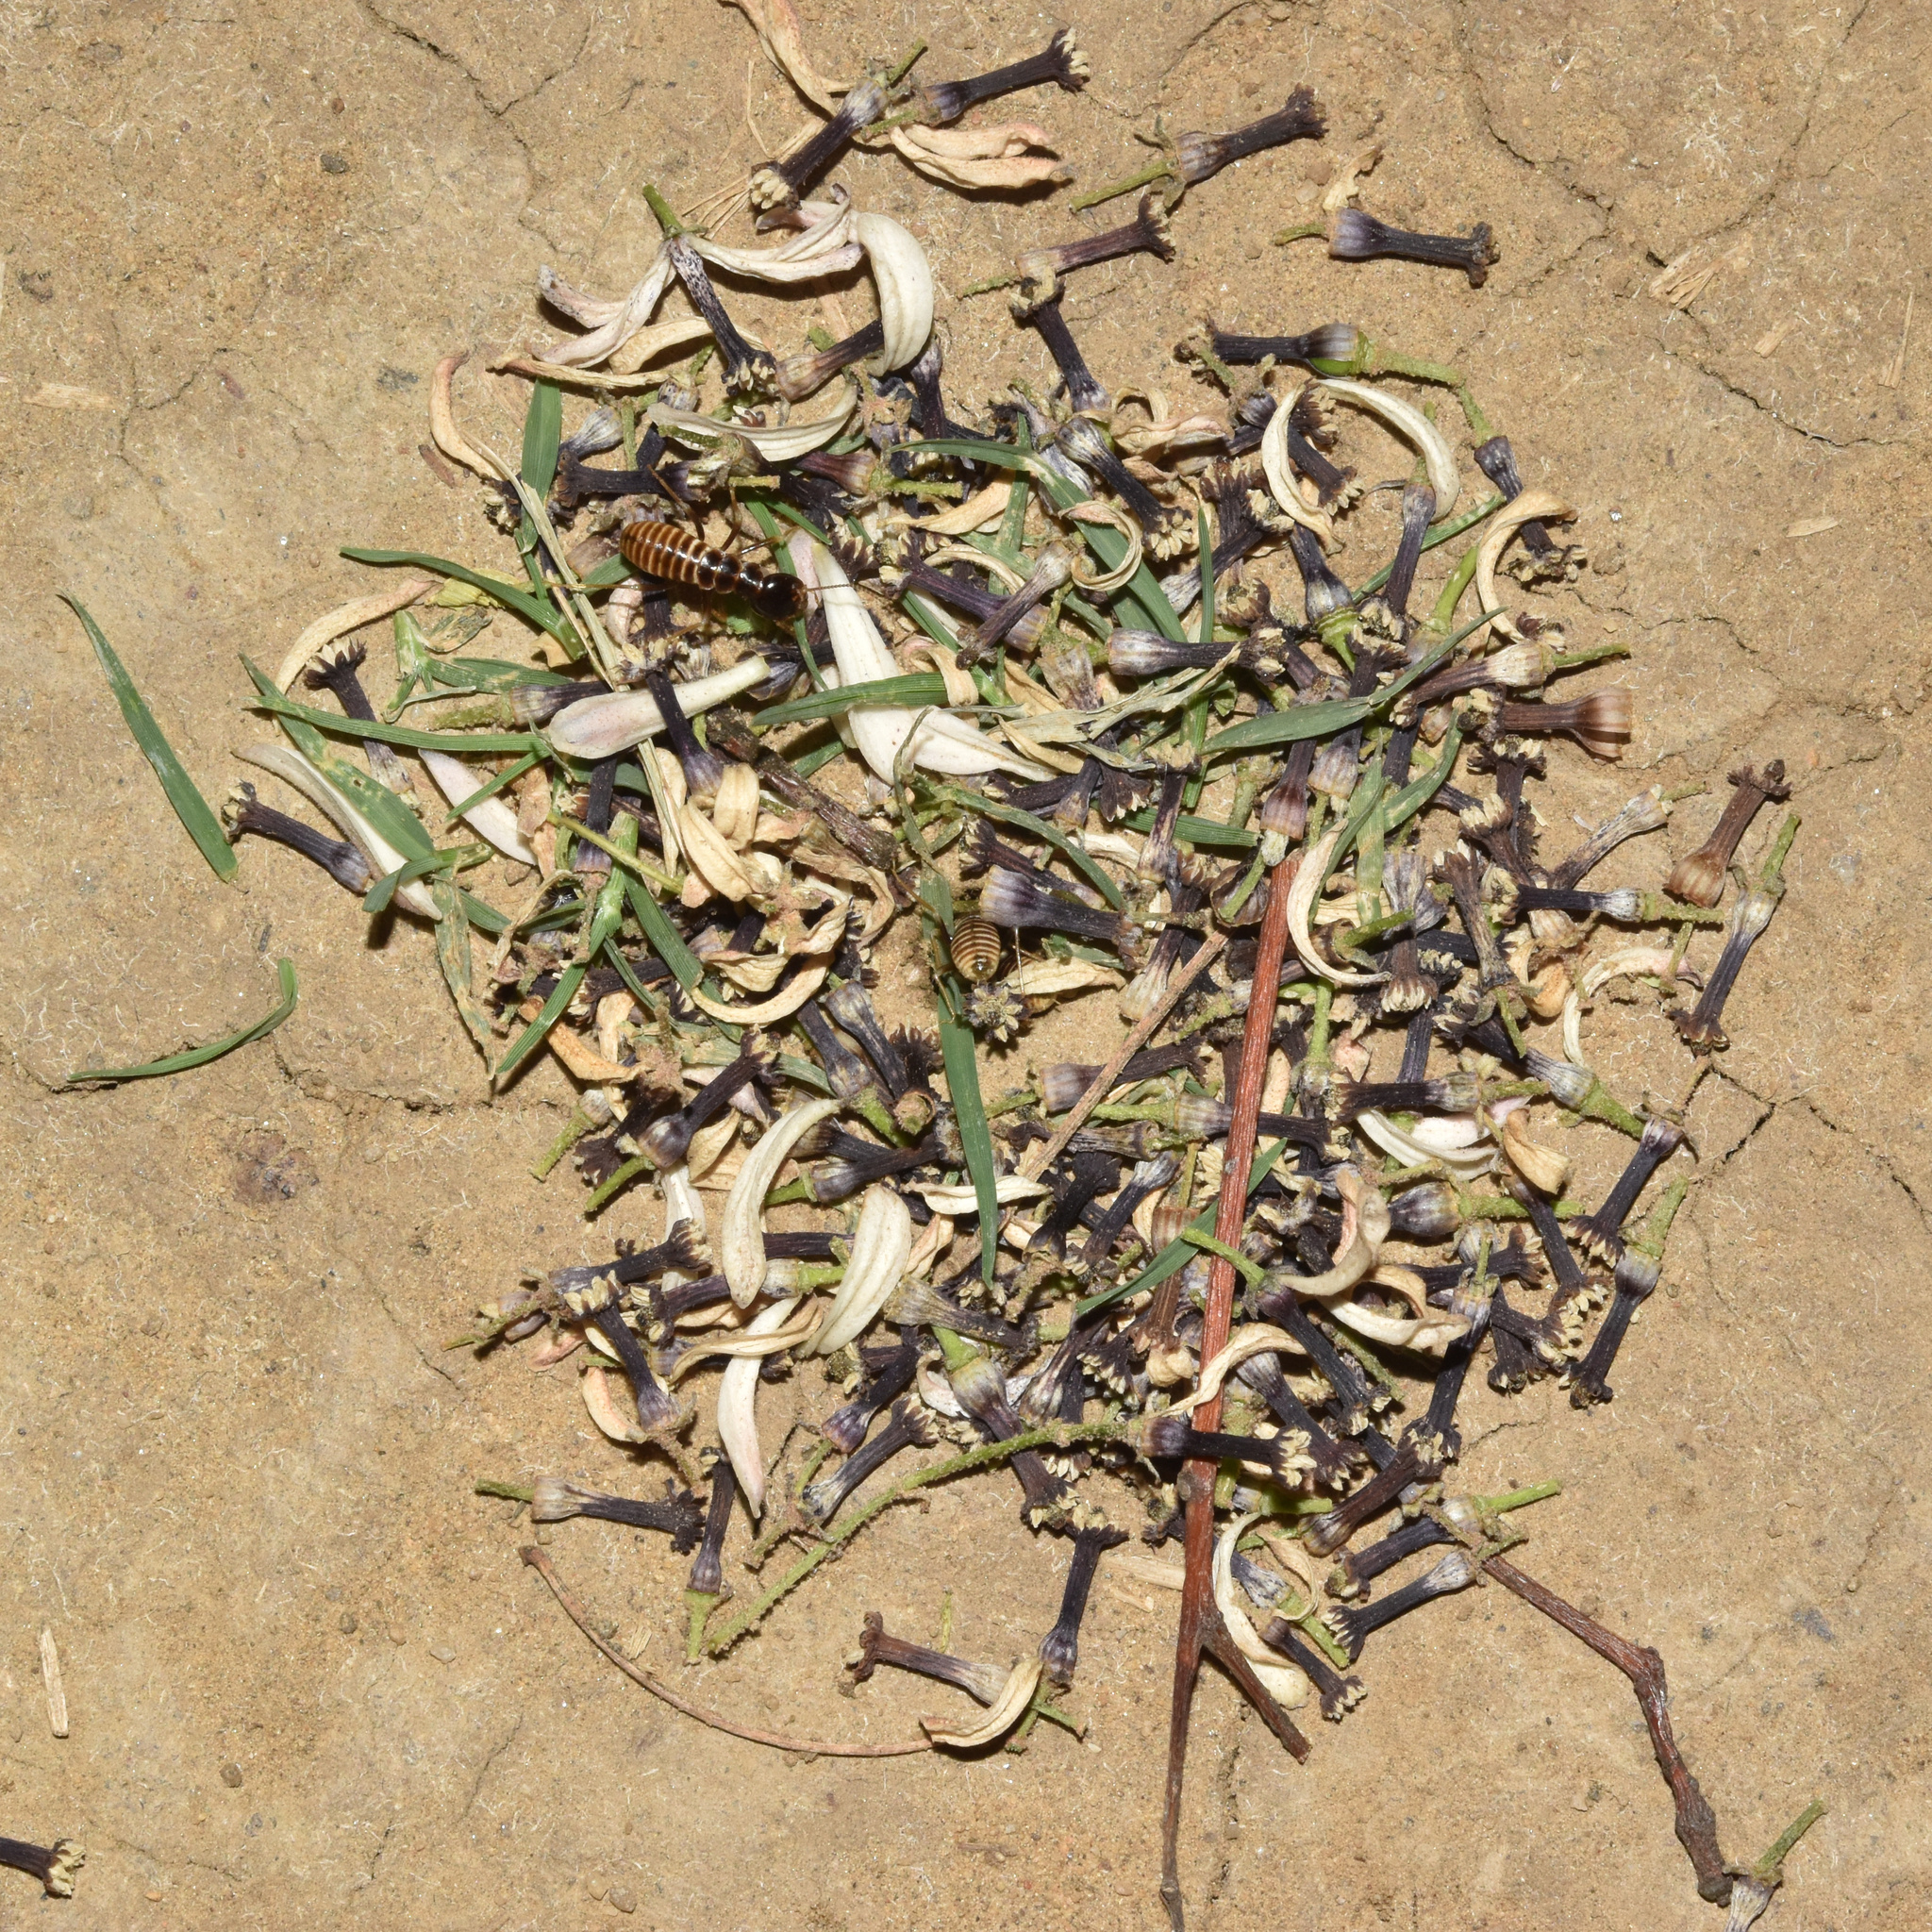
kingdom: Animalia
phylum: Arthropoda
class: Insecta
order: Blattodea
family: Hodotermitidae
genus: Hodotermes
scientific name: Hodotermes mossambicus
